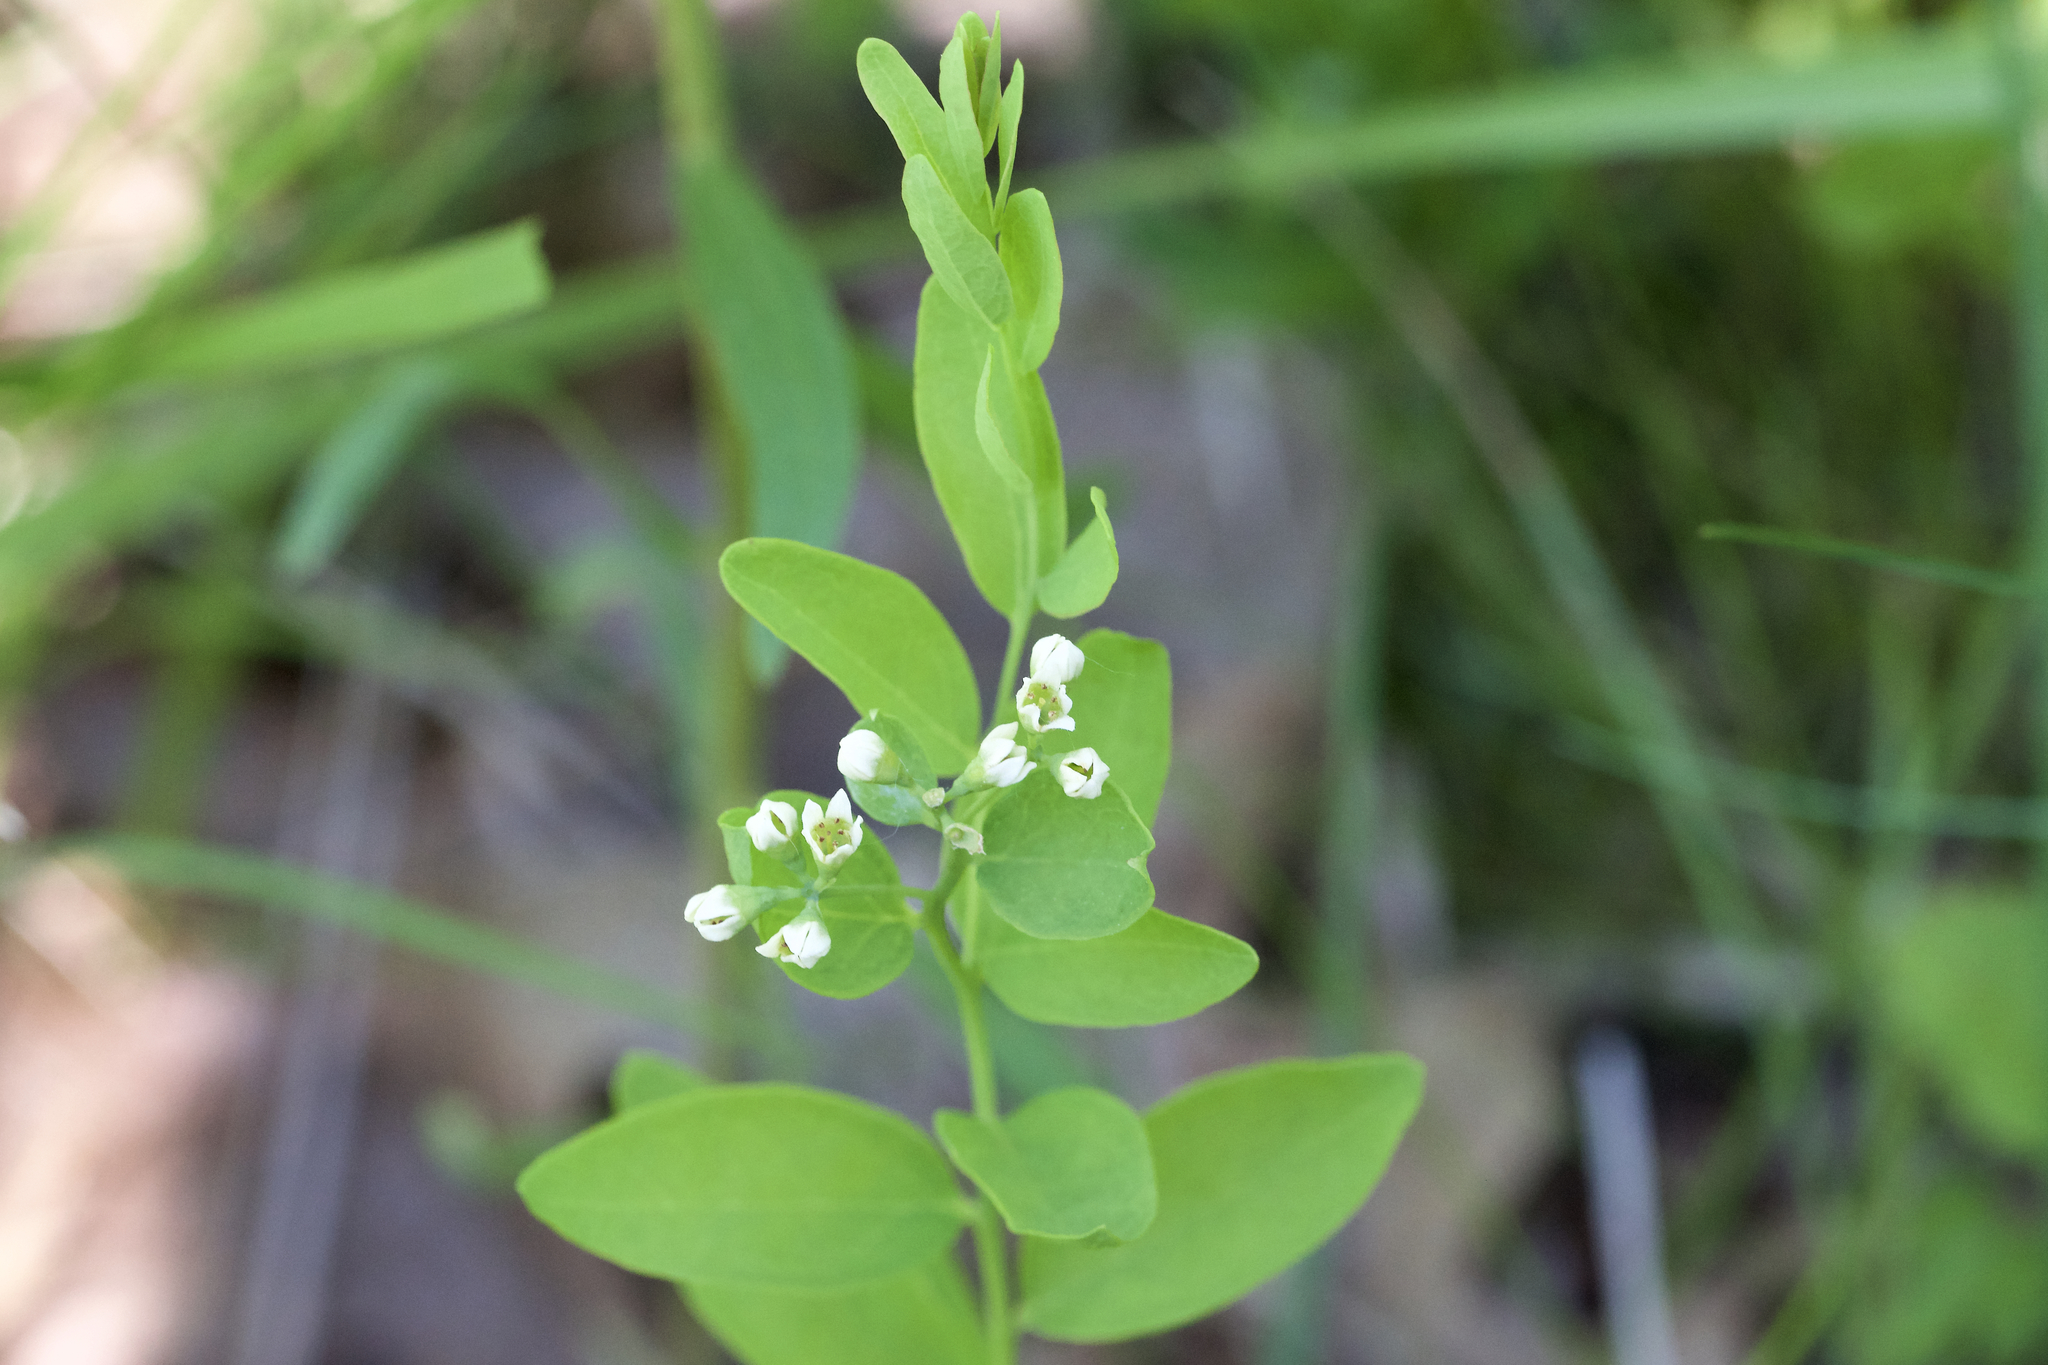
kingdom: Plantae
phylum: Tracheophyta
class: Magnoliopsida
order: Santalales
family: Comandraceae
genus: Comandra
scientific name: Comandra umbellata
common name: Bastard toadflax
